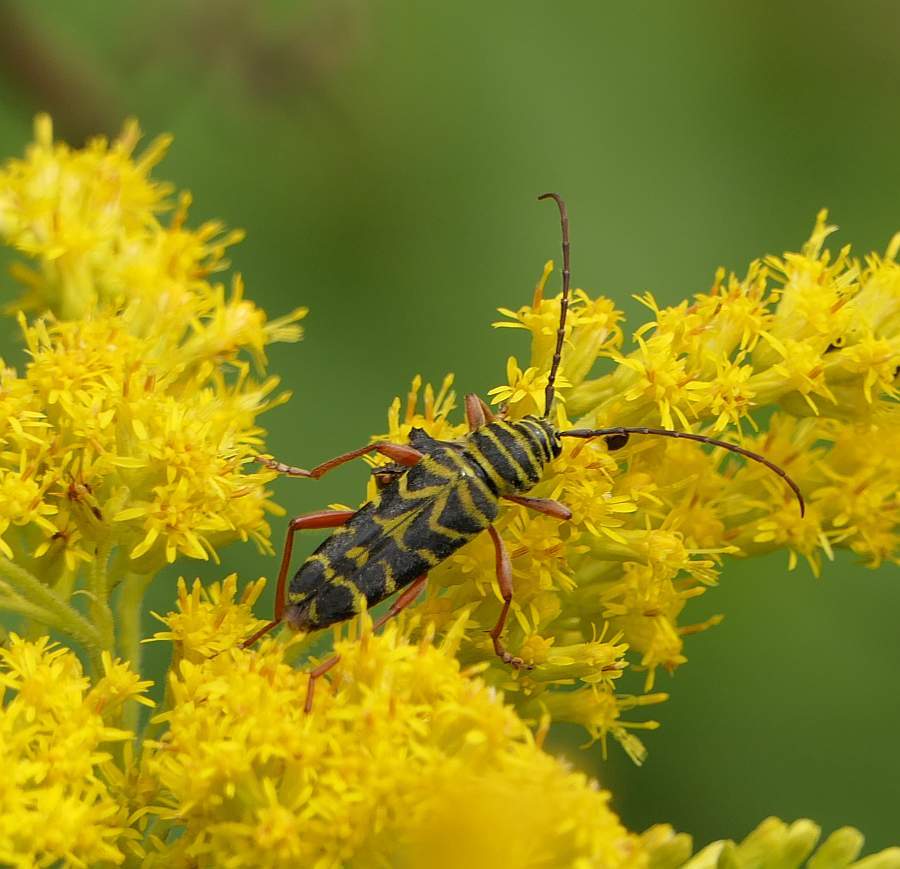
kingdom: Animalia
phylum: Arthropoda
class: Insecta
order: Coleoptera
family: Cerambycidae
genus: Megacyllene
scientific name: Megacyllene robiniae
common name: Locust borer
